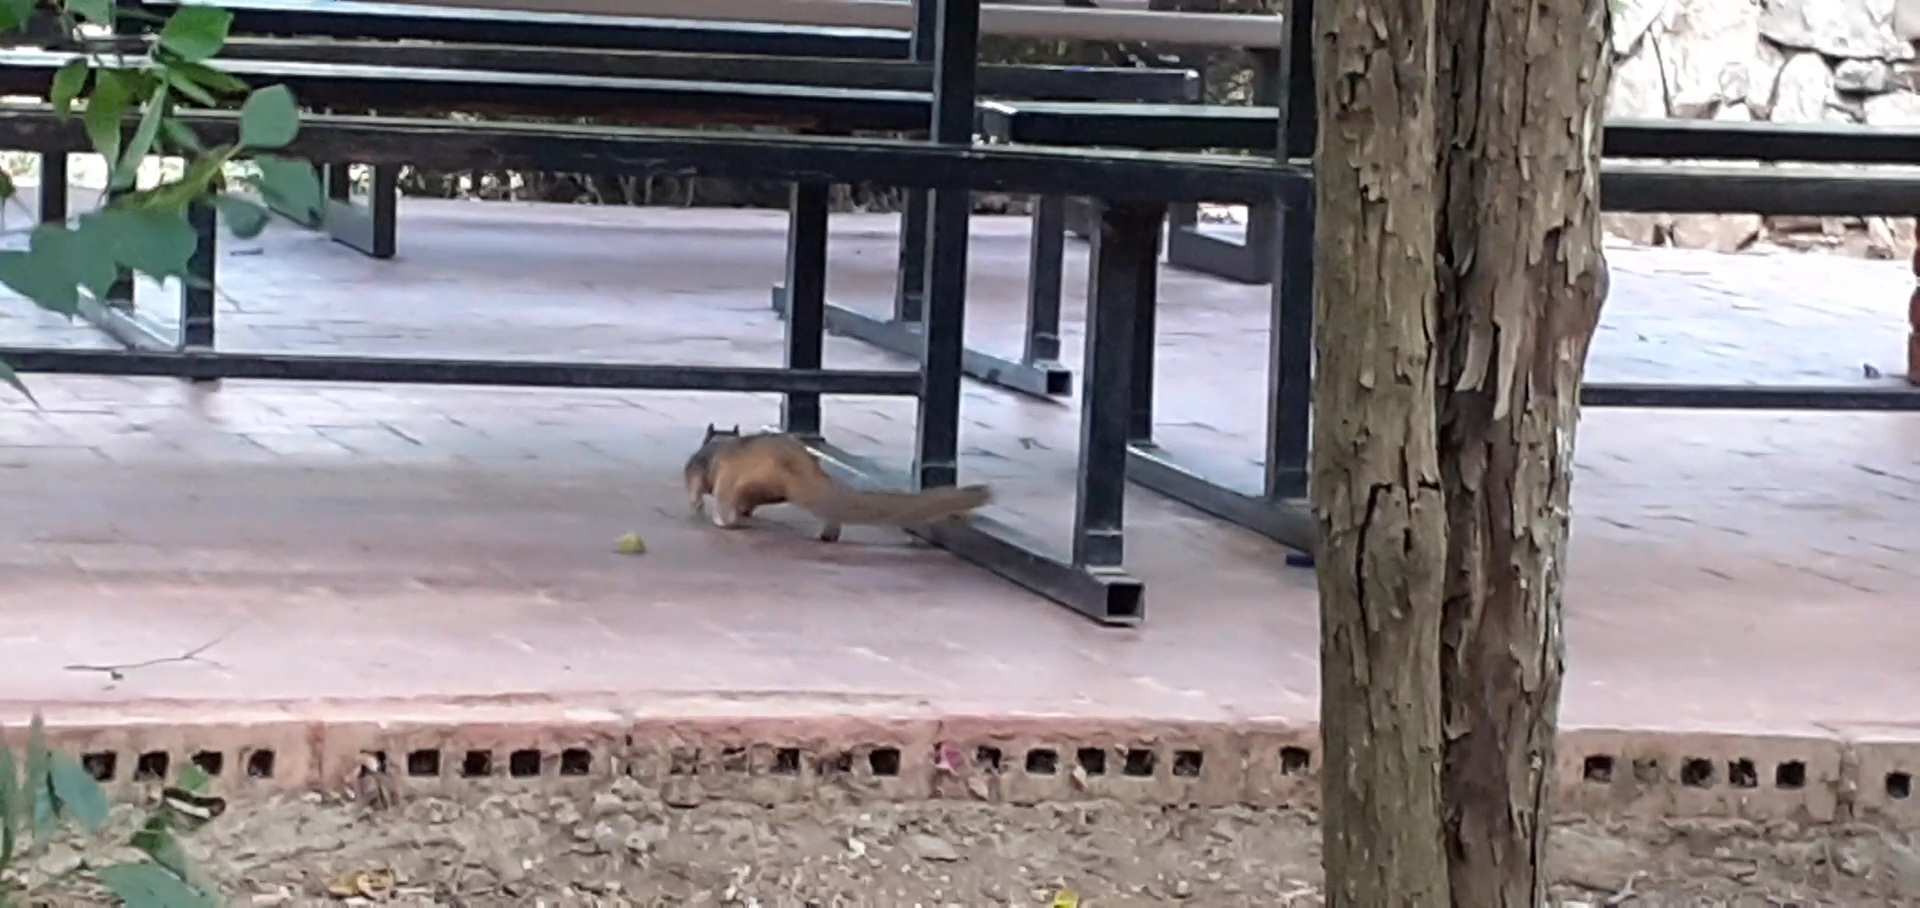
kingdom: Animalia
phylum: Chordata
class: Mammalia
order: Rodentia
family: Sciuridae
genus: Otospermophilus
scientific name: Otospermophilus variegatus
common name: Rock squirrel
